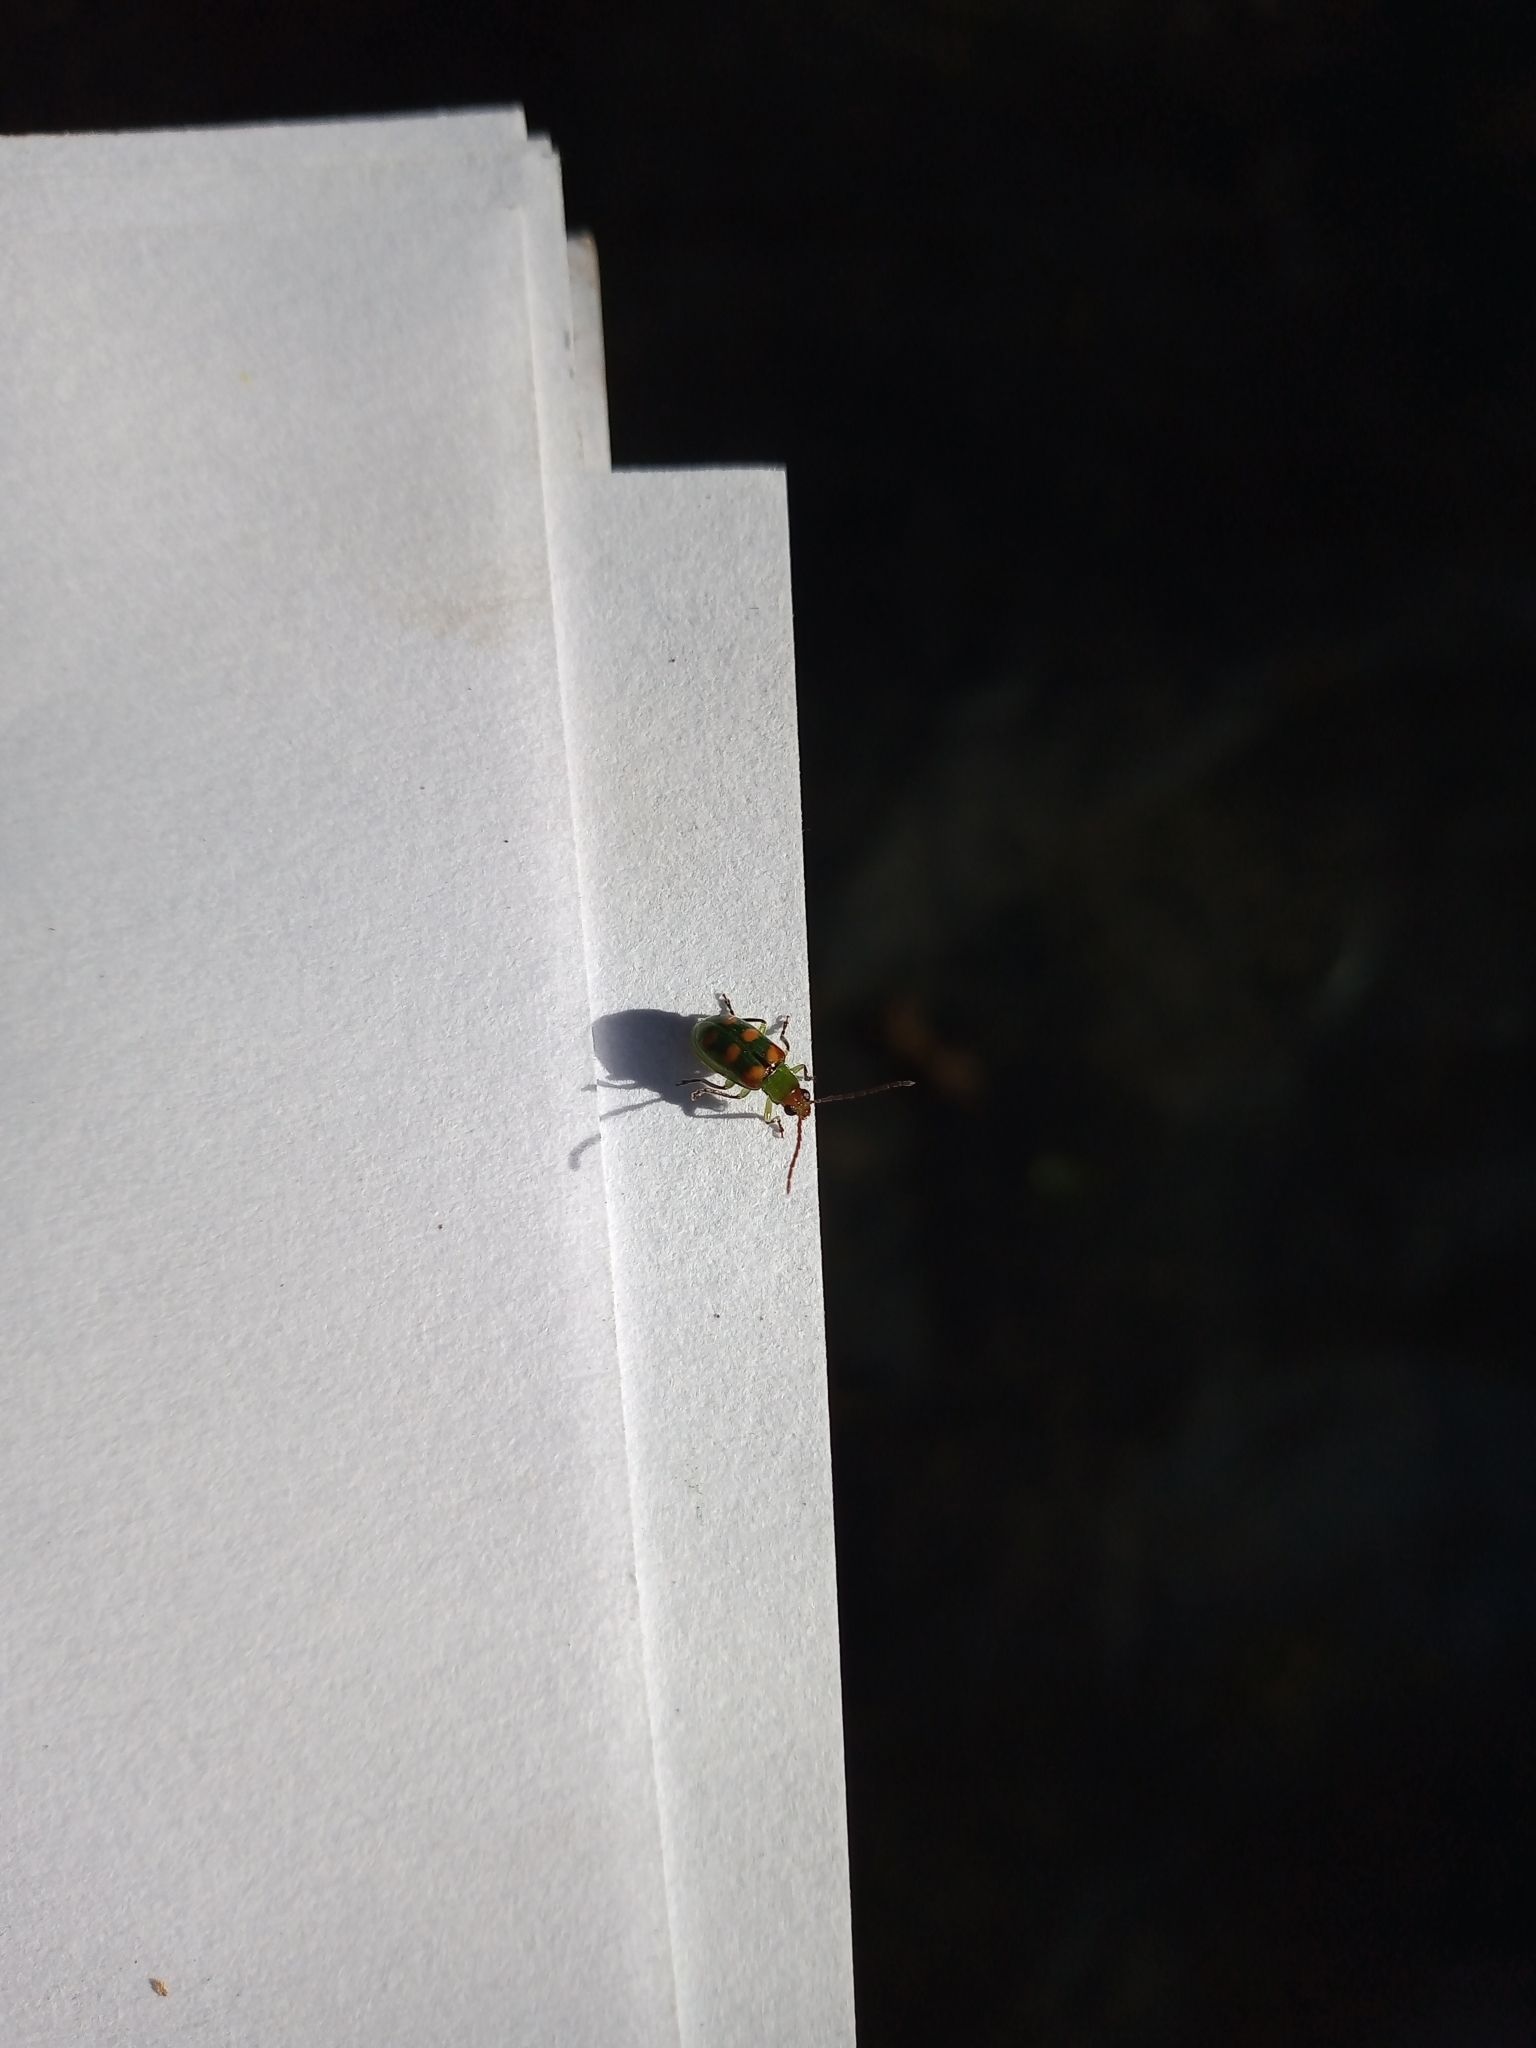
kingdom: Animalia
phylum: Arthropoda
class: Insecta
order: Coleoptera
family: Chrysomelidae
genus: Diabrotica
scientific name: Diabrotica speciosa
